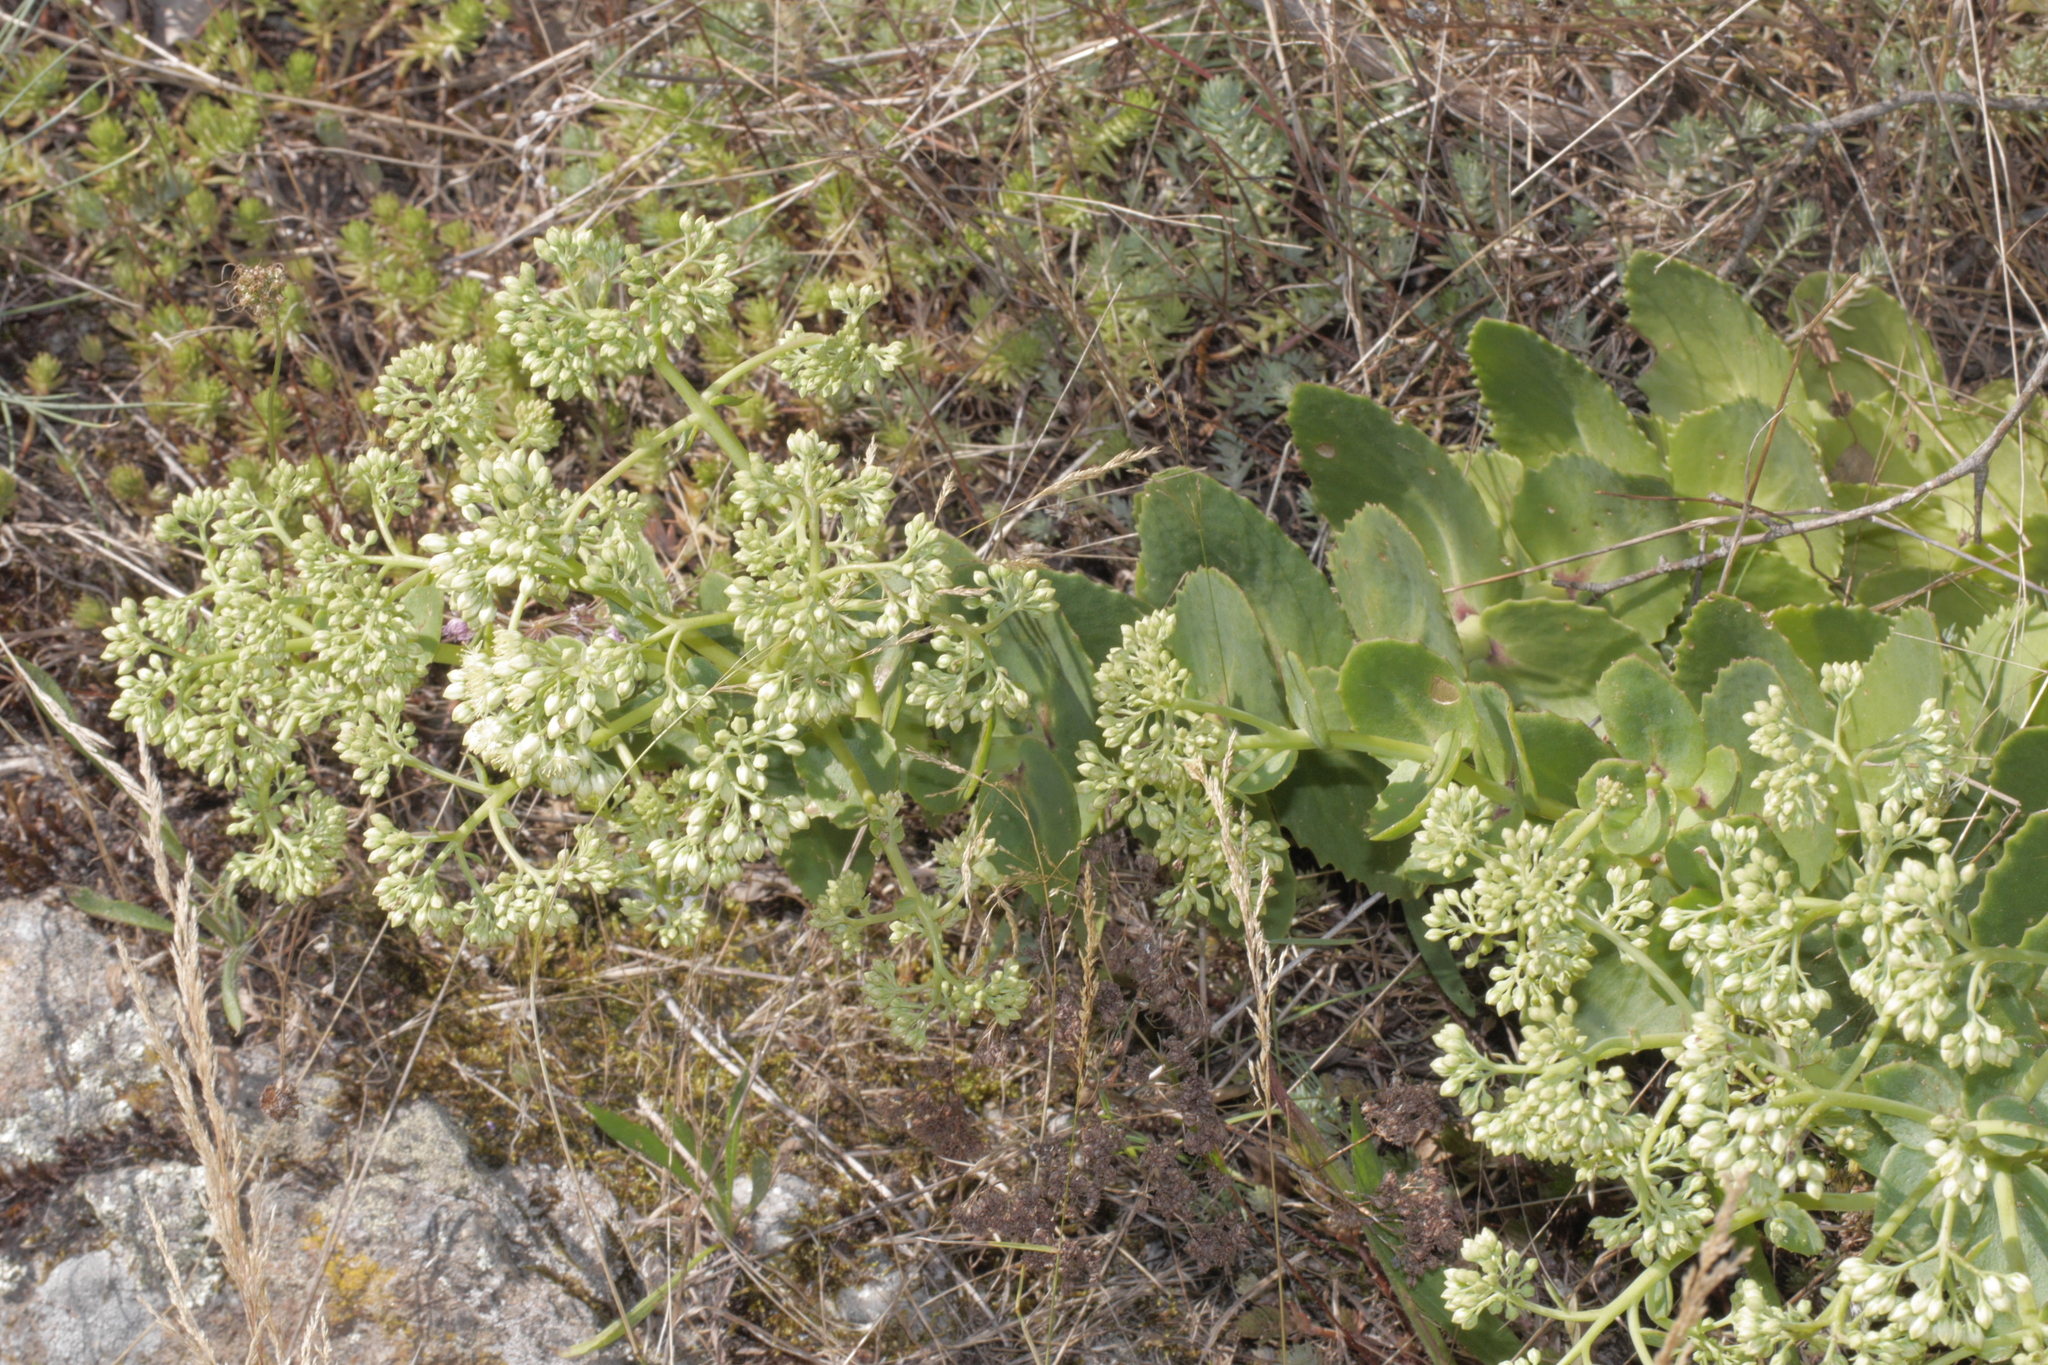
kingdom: Plantae
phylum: Tracheophyta
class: Magnoliopsida
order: Saxifragales
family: Crassulaceae
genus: Hylotelephium
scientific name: Hylotelephium maximum
